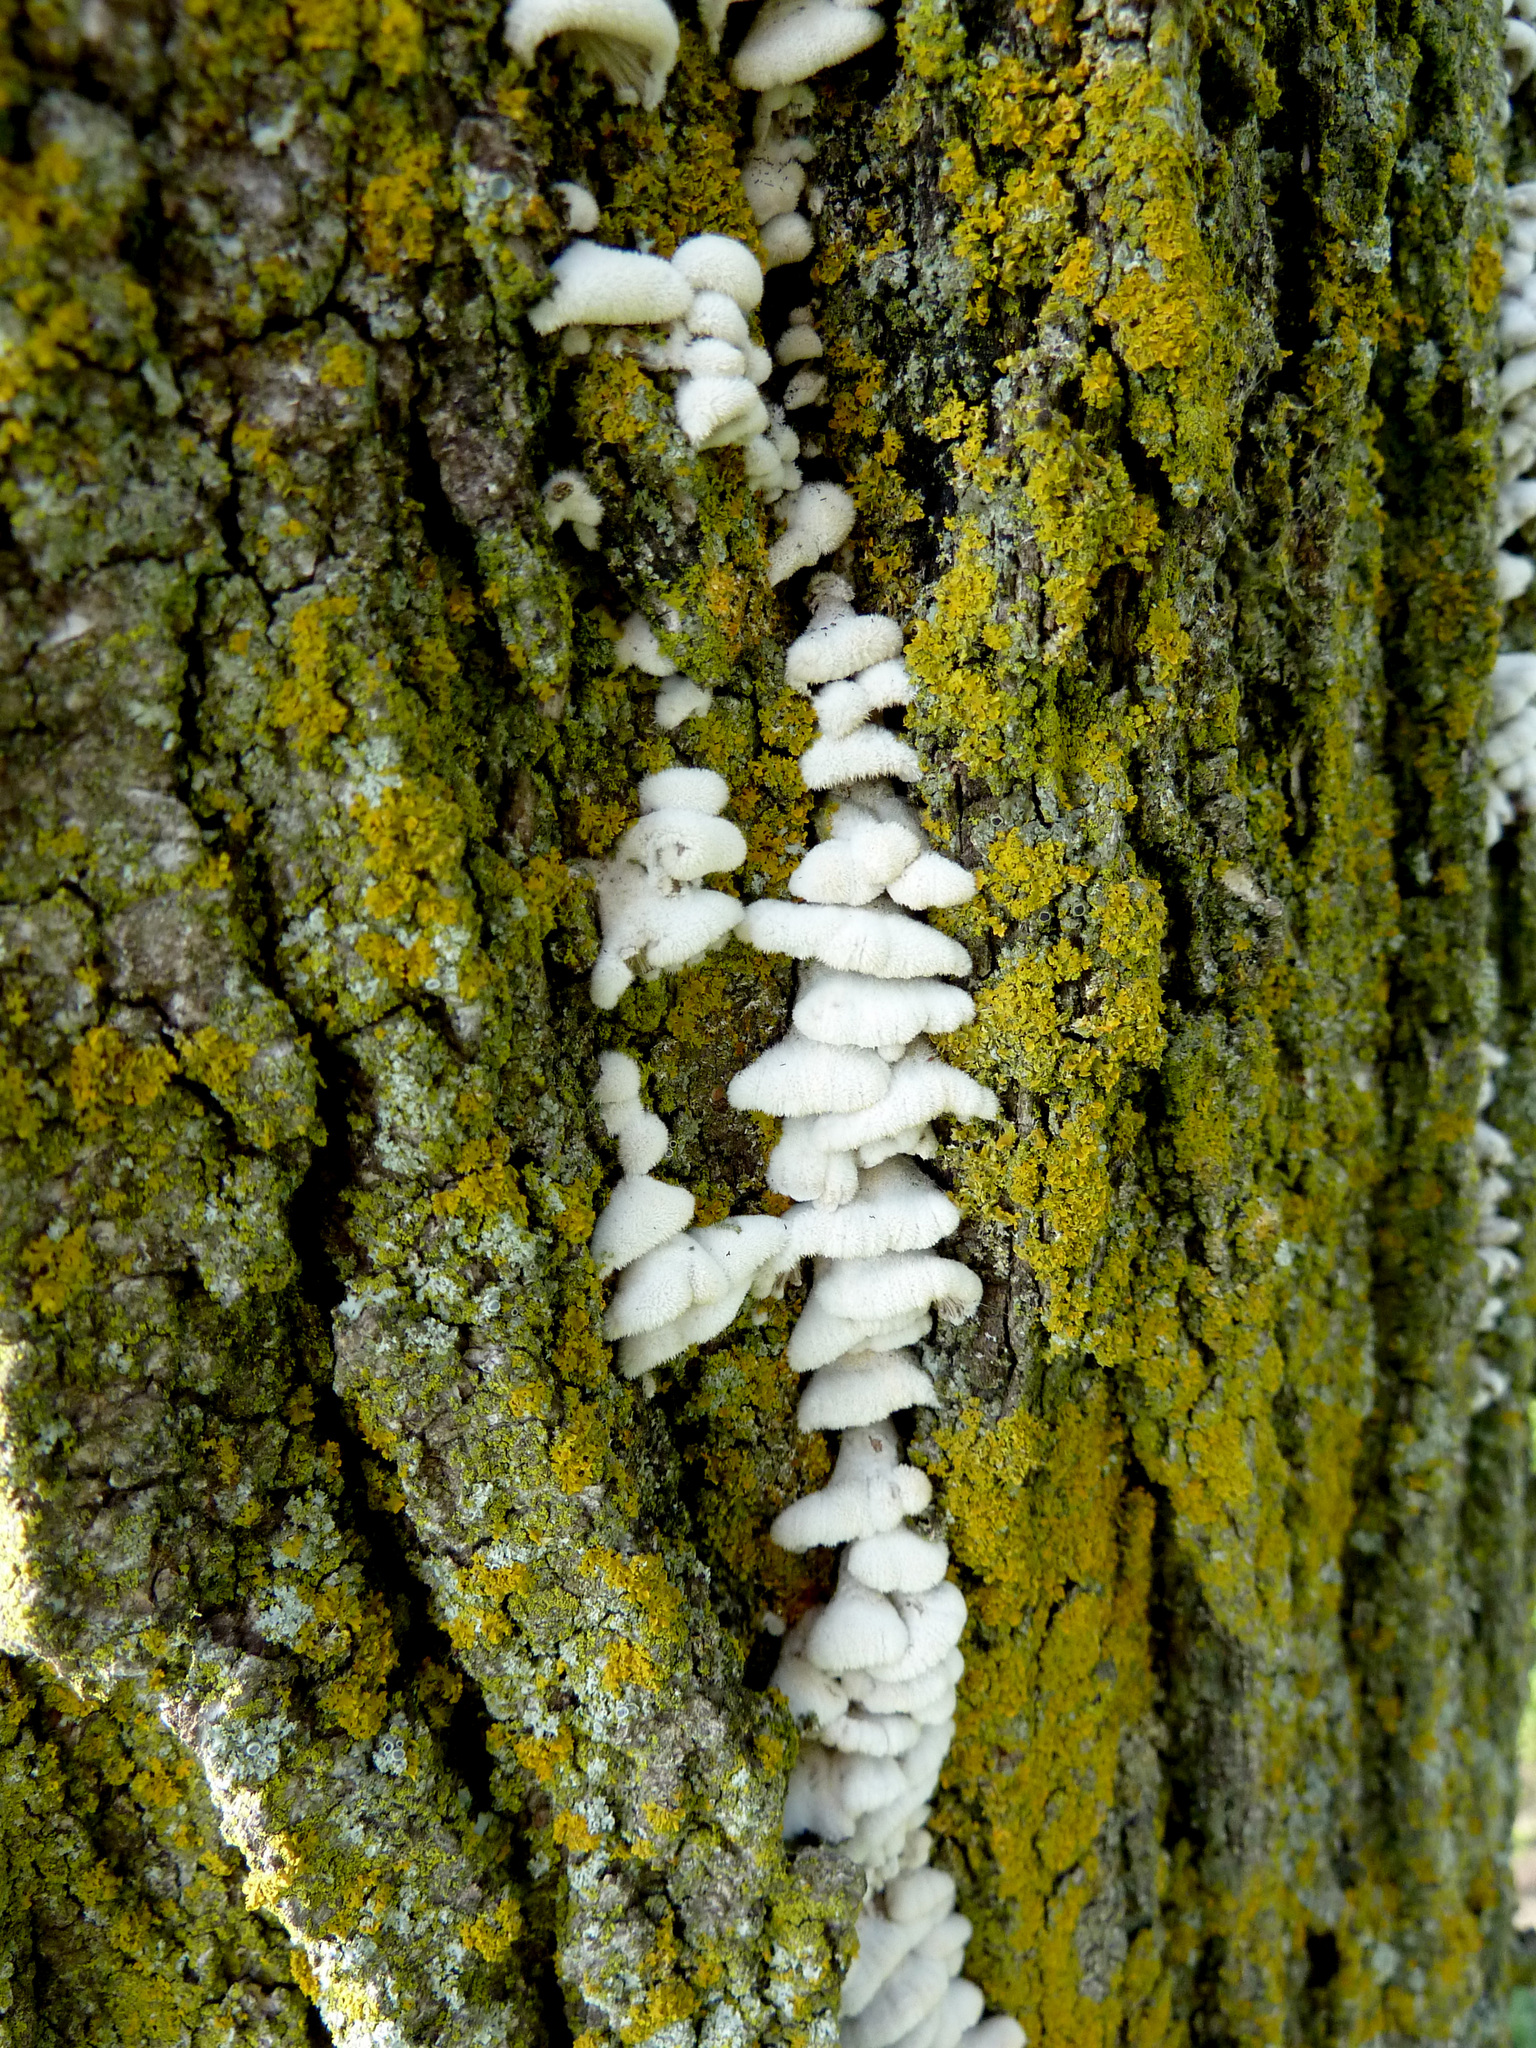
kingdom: Fungi
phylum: Basidiomycota
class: Agaricomycetes
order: Agaricales
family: Schizophyllaceae
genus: Schizophyllum
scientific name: Schizophyllum commune
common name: Common porecrust
